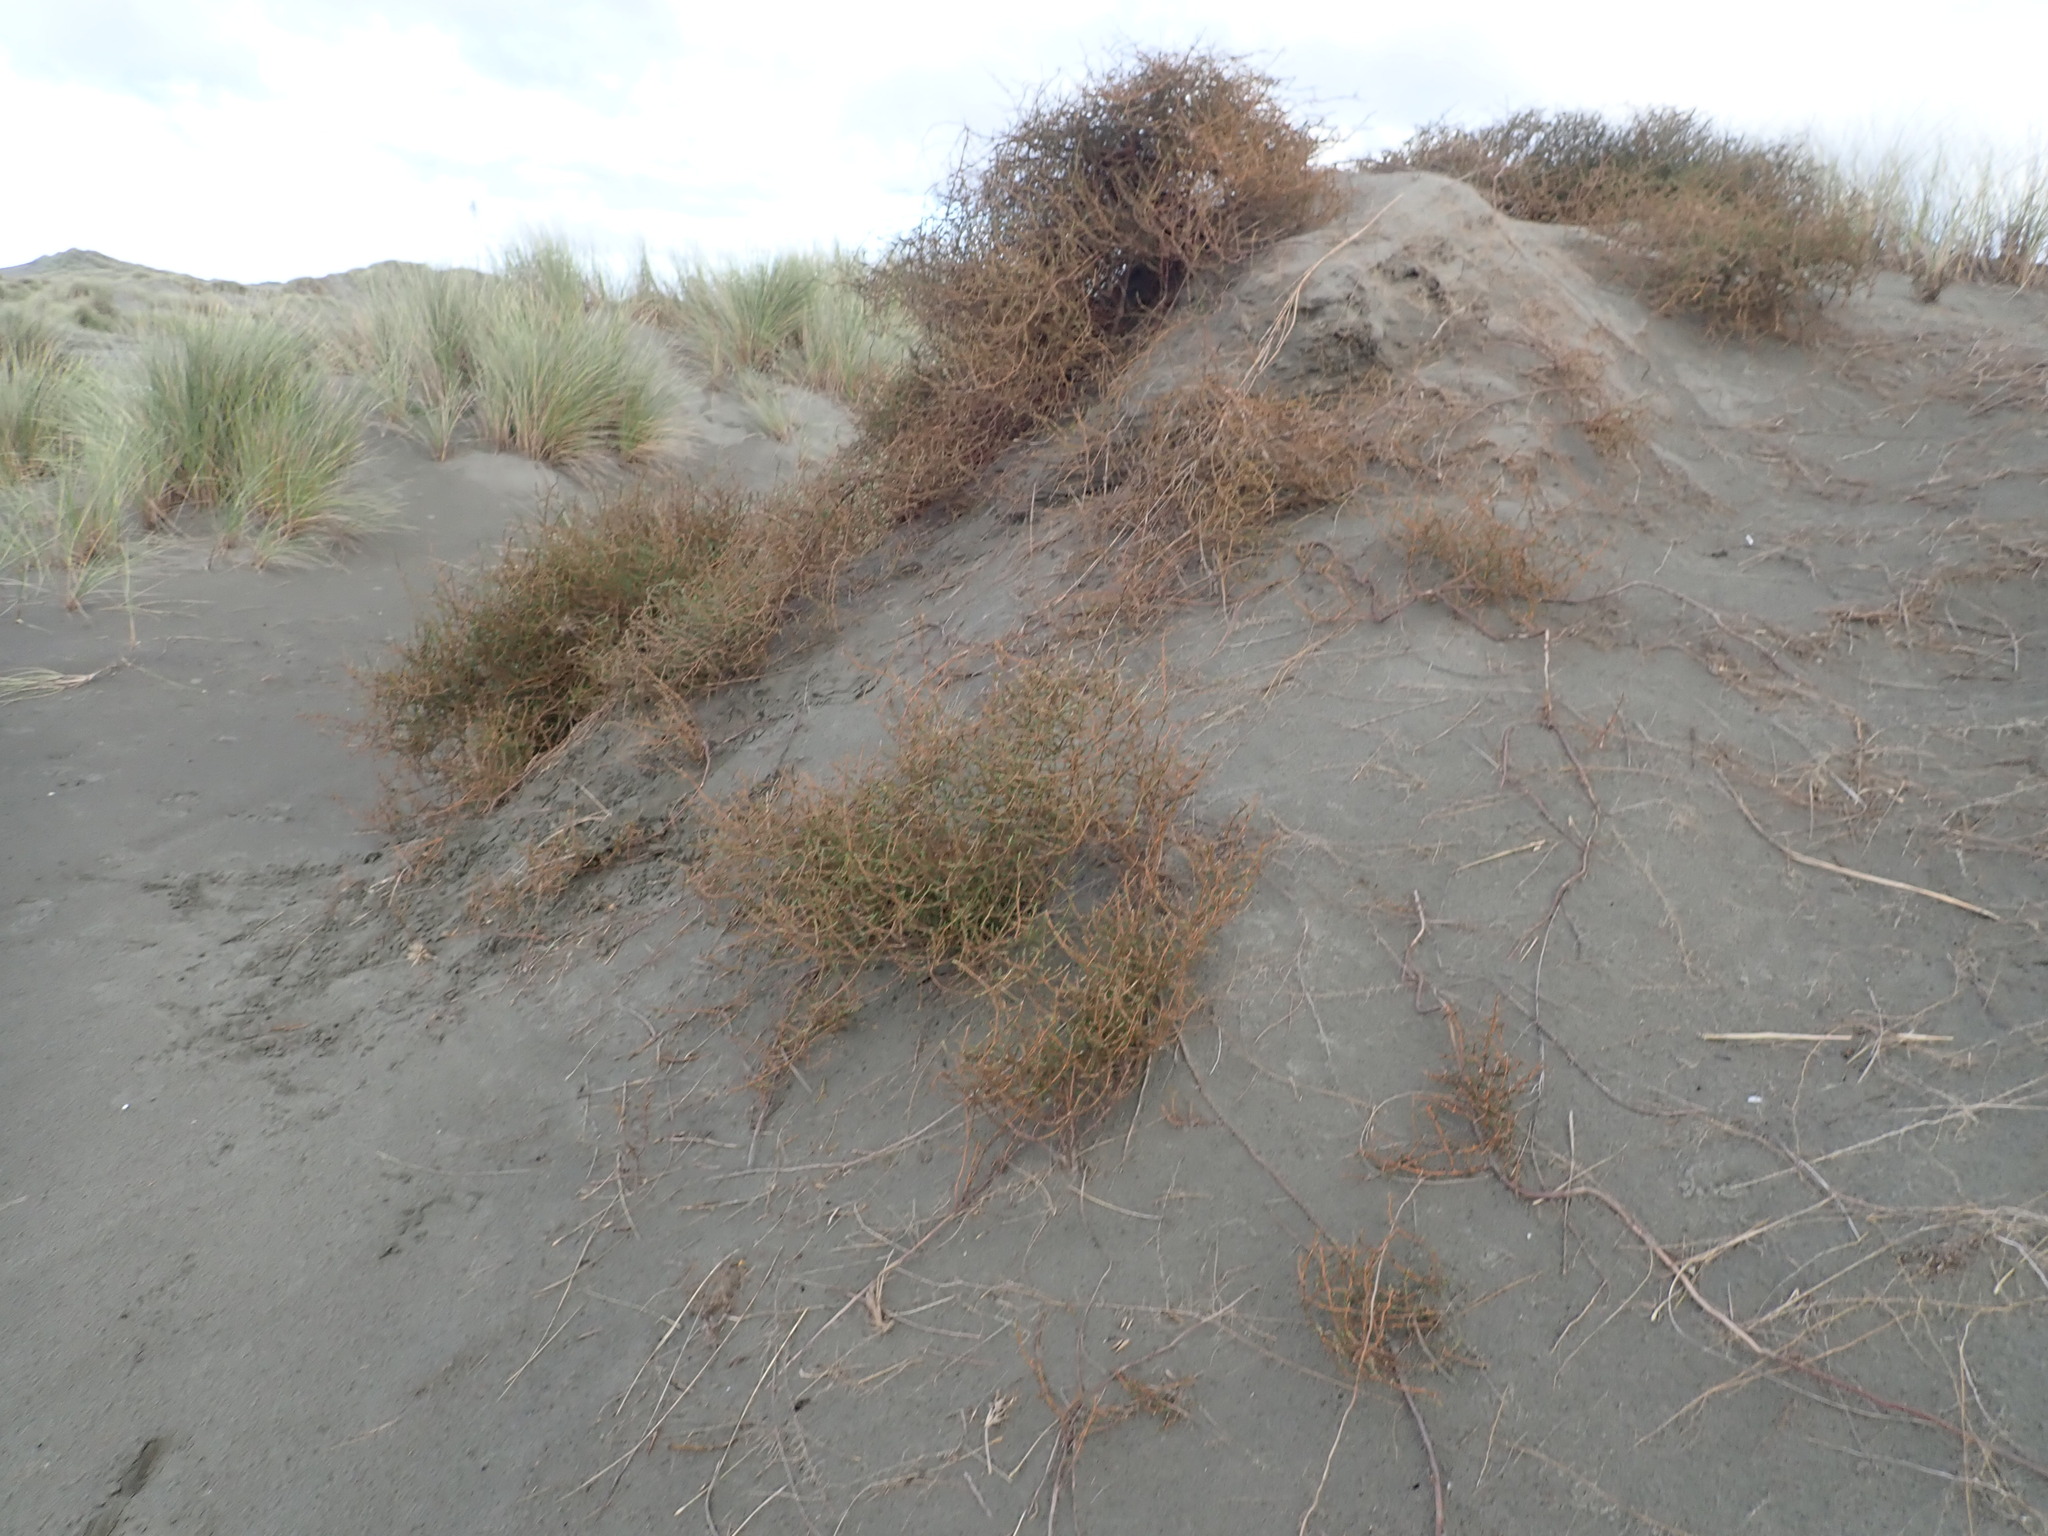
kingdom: Plantae
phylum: Tracheophyta
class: Magnoliopsida
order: Gentianales
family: Rubiaceae
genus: Coprosma
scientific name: Coprosma acerosa
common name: Sand coprosma
